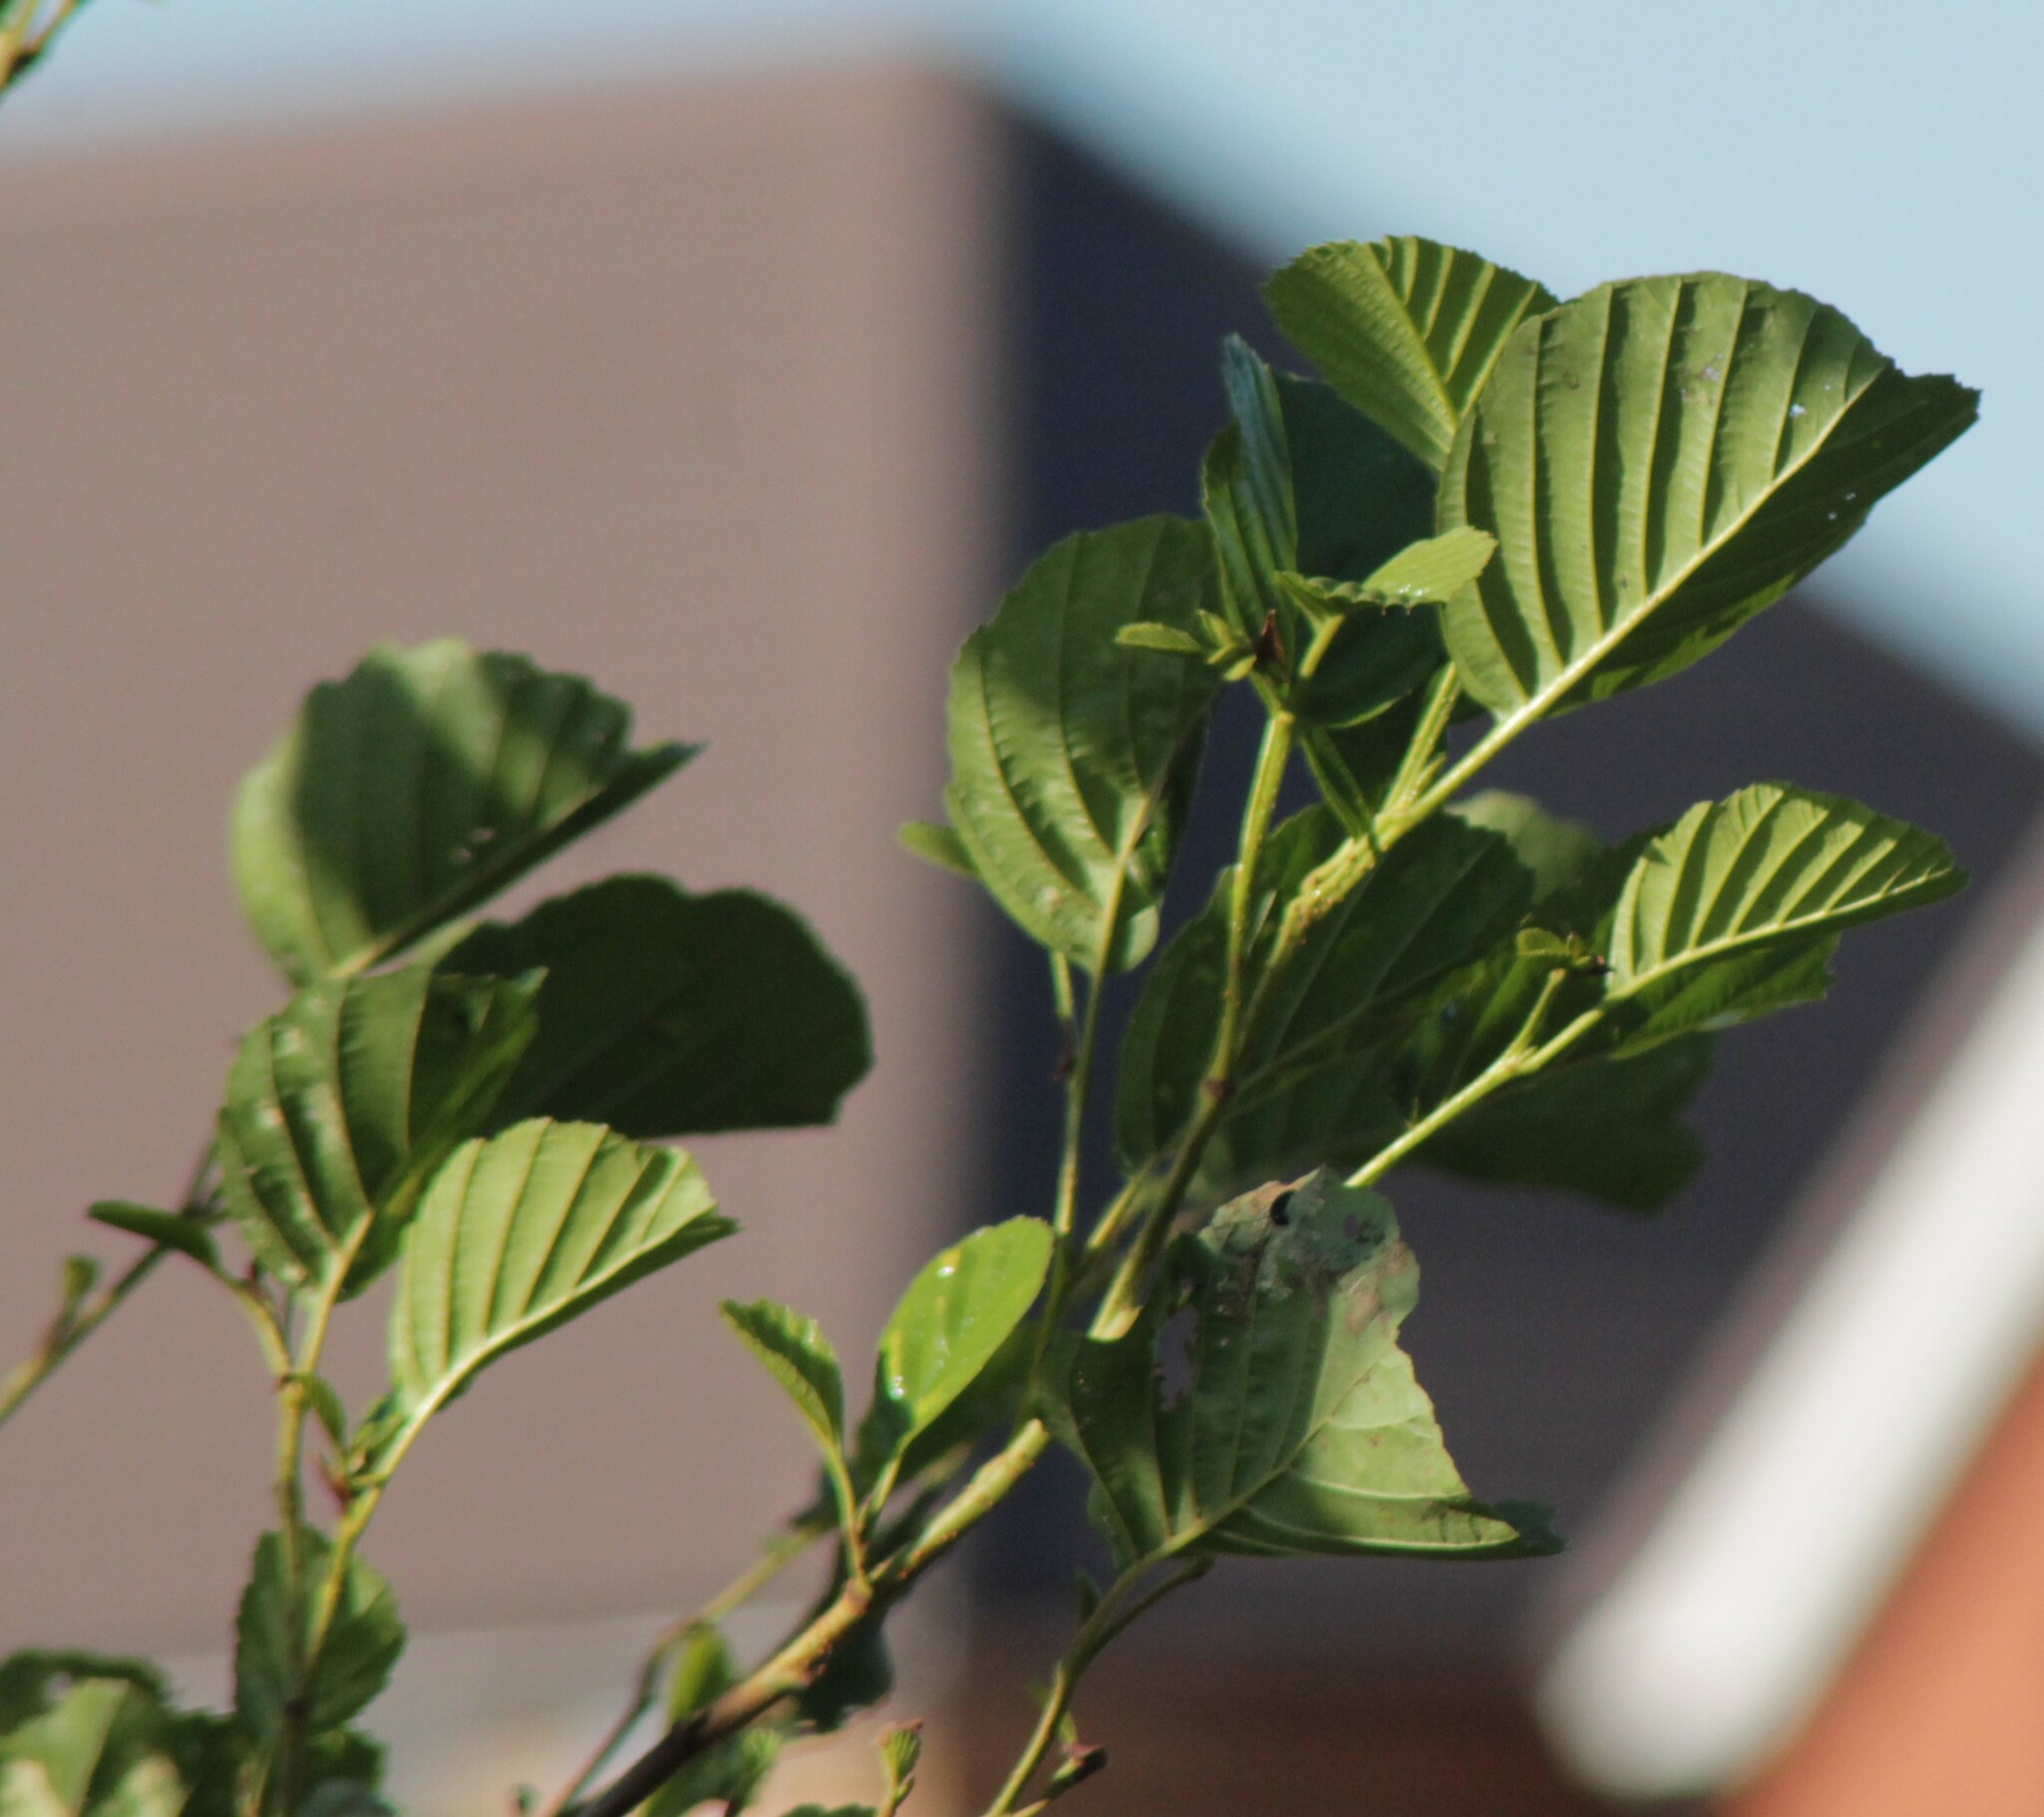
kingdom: Plantae
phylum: Tracheophyta
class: Magnoliopsida
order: Fagales
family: Betulaceae
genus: Alnus
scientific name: Alnus glutinosa
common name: Black alder
